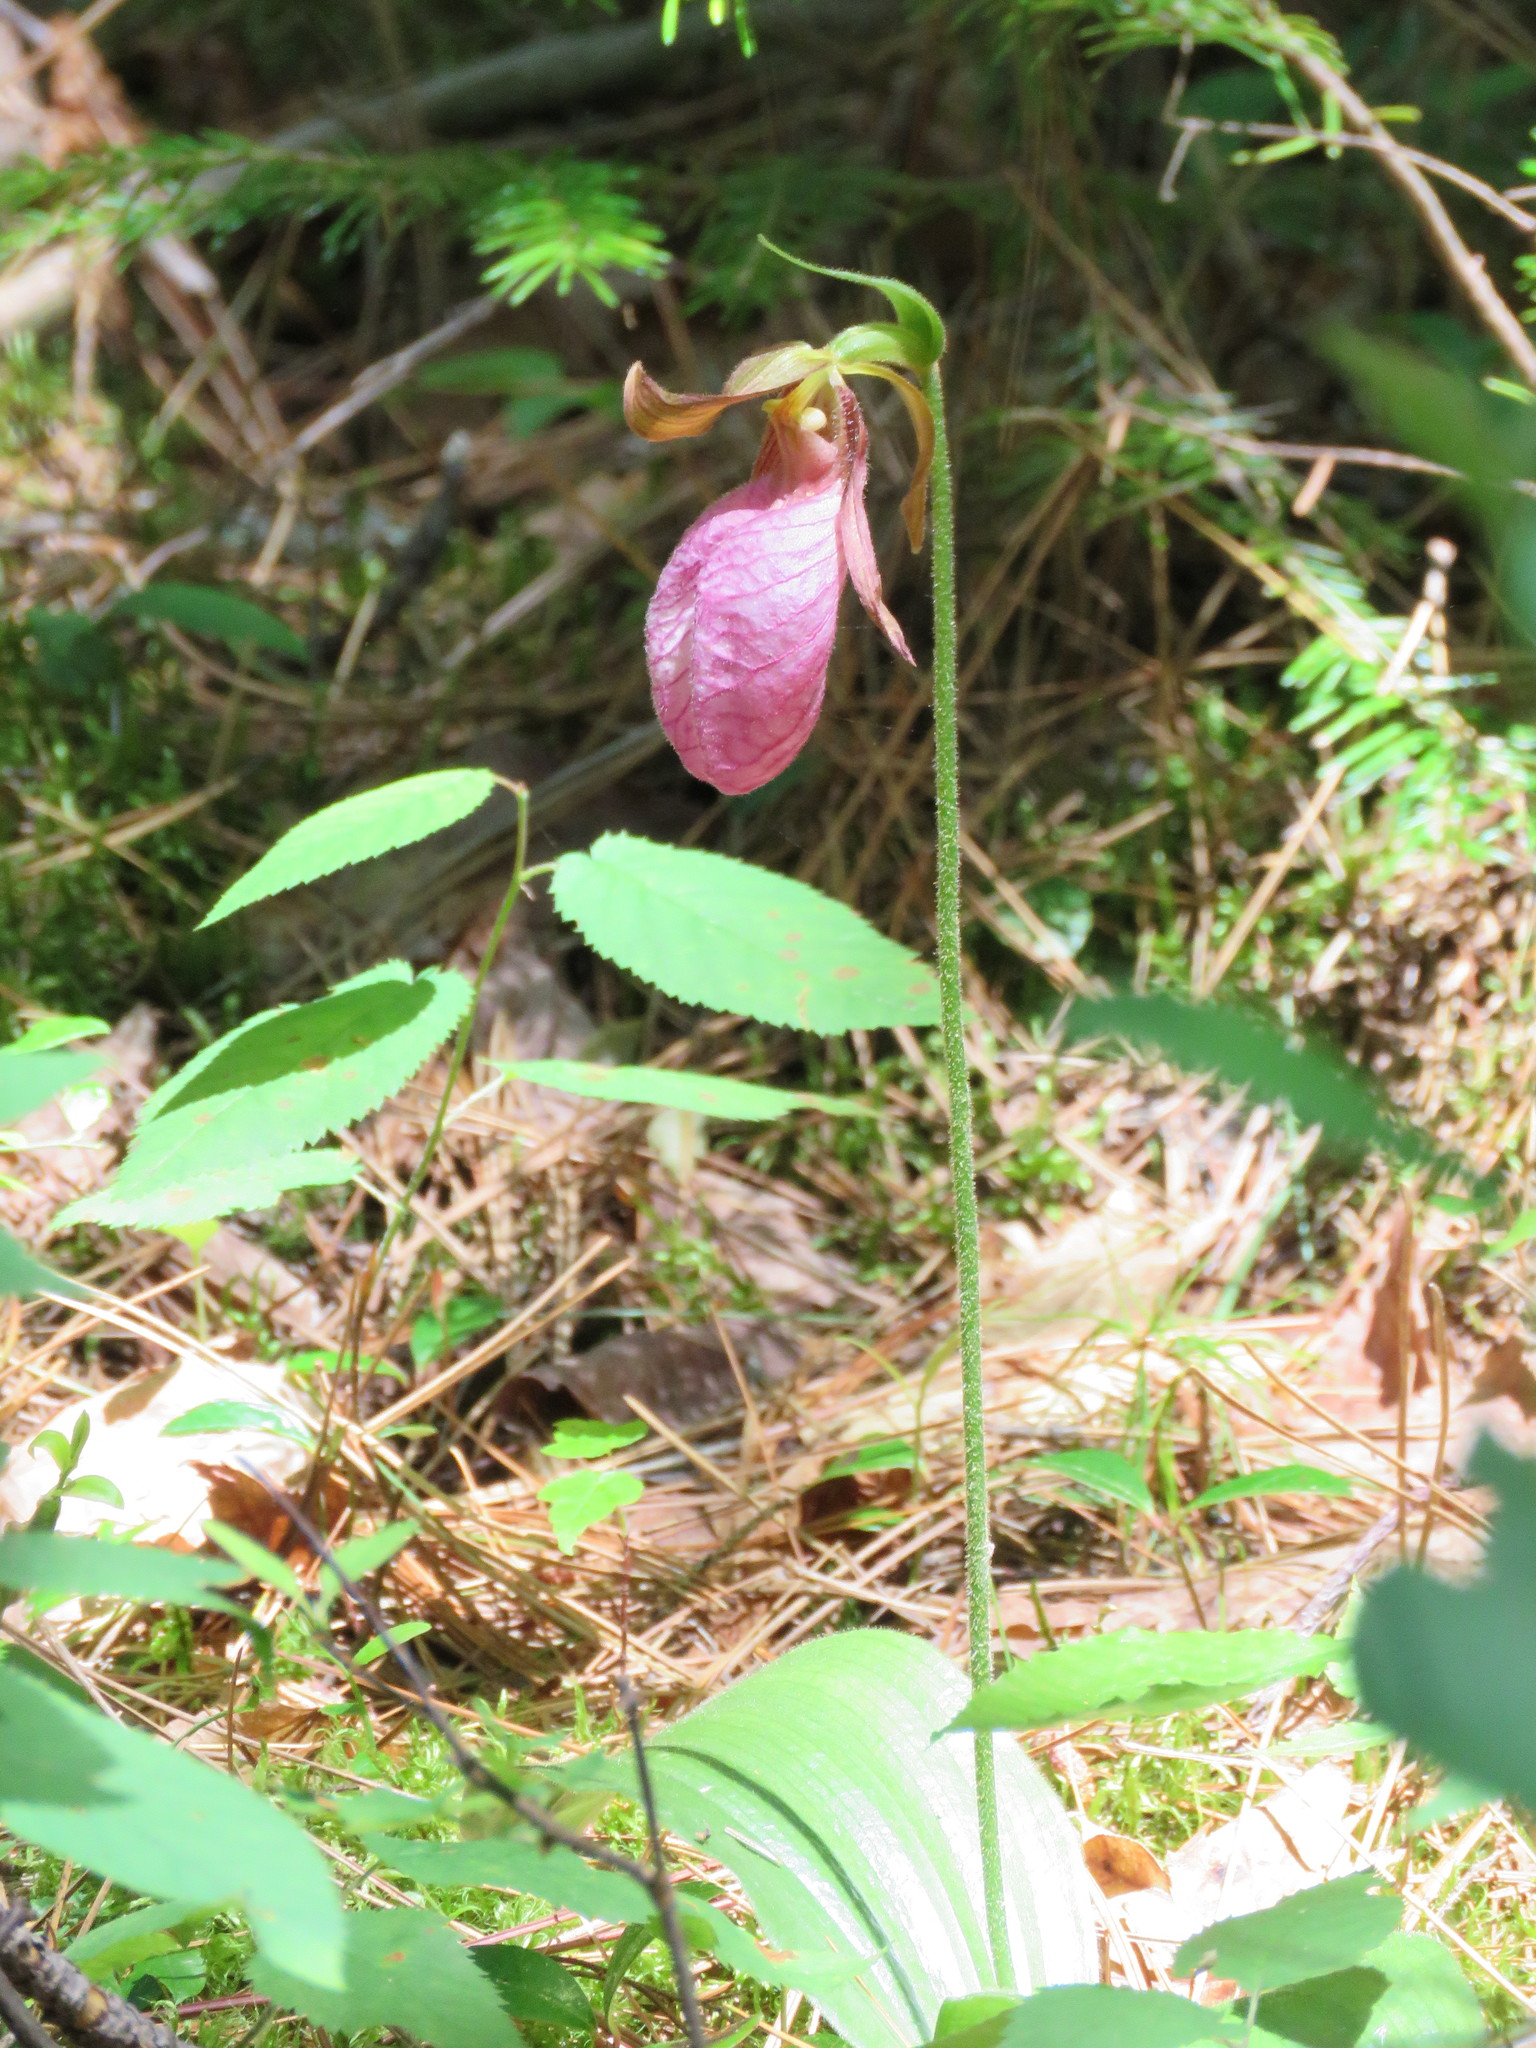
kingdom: Plantae
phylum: Tracheophyta
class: Liliopsida
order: Asparagales
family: Orchidaceae
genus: Cypripedium
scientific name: Cypripedium acaule
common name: Pink lady's-slipper
